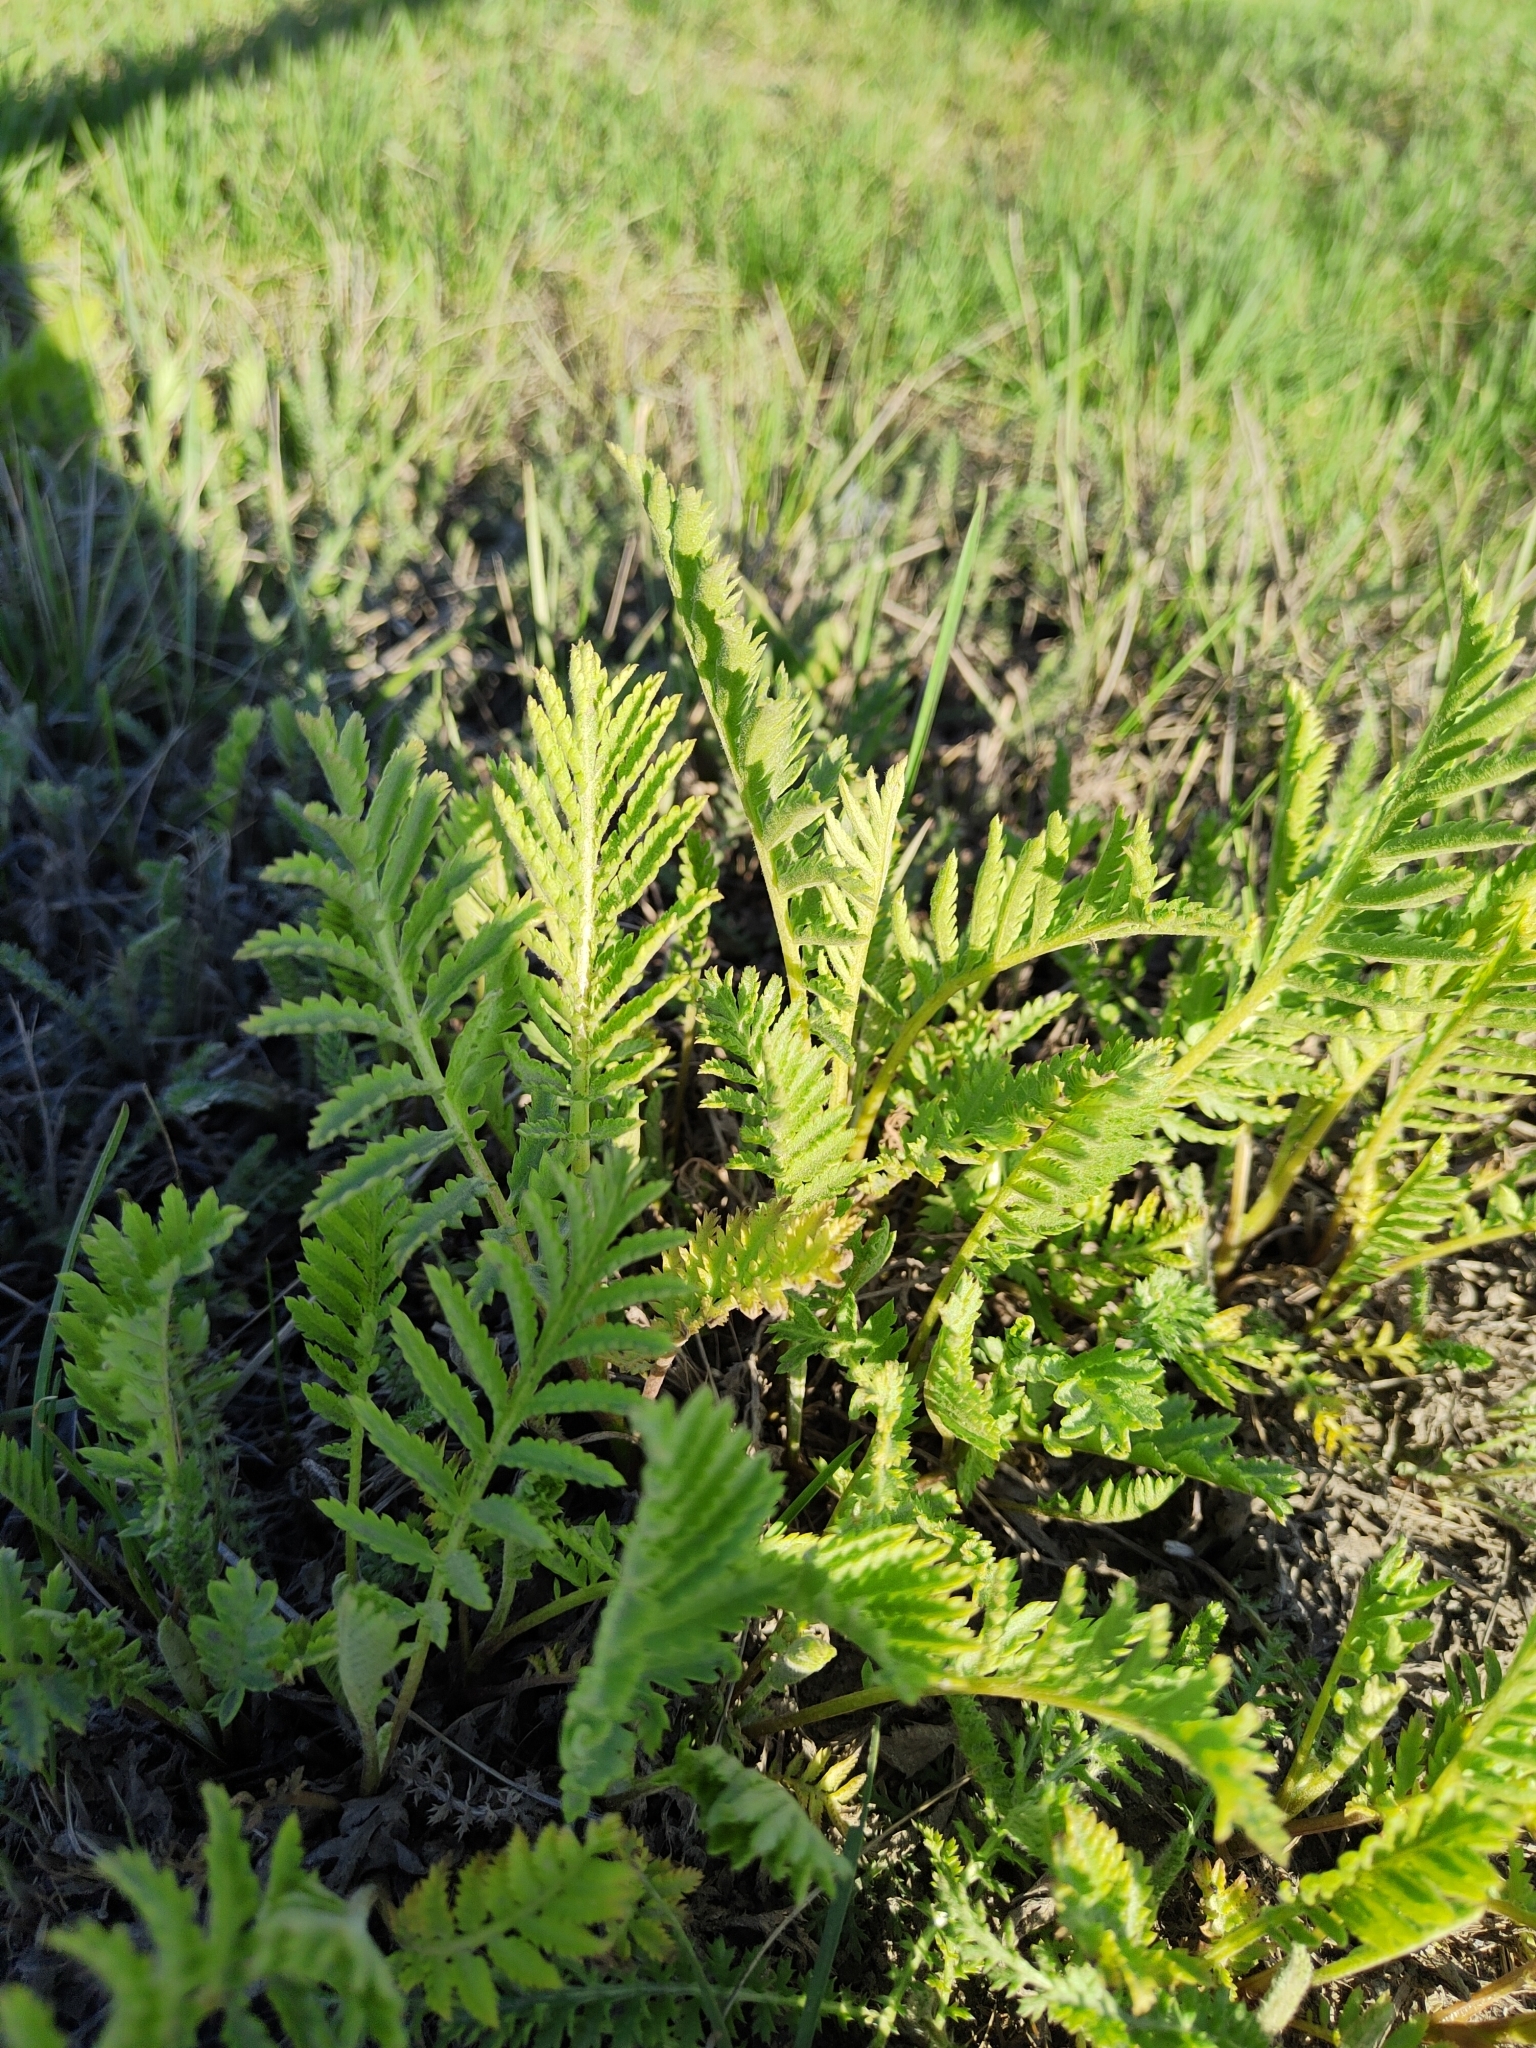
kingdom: Plantae
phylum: Tracheophyta
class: Magnoliopsida
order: Asterales
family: Asteraceae
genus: Tanacetum
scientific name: Tanacetum vulgare
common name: Common tansy
